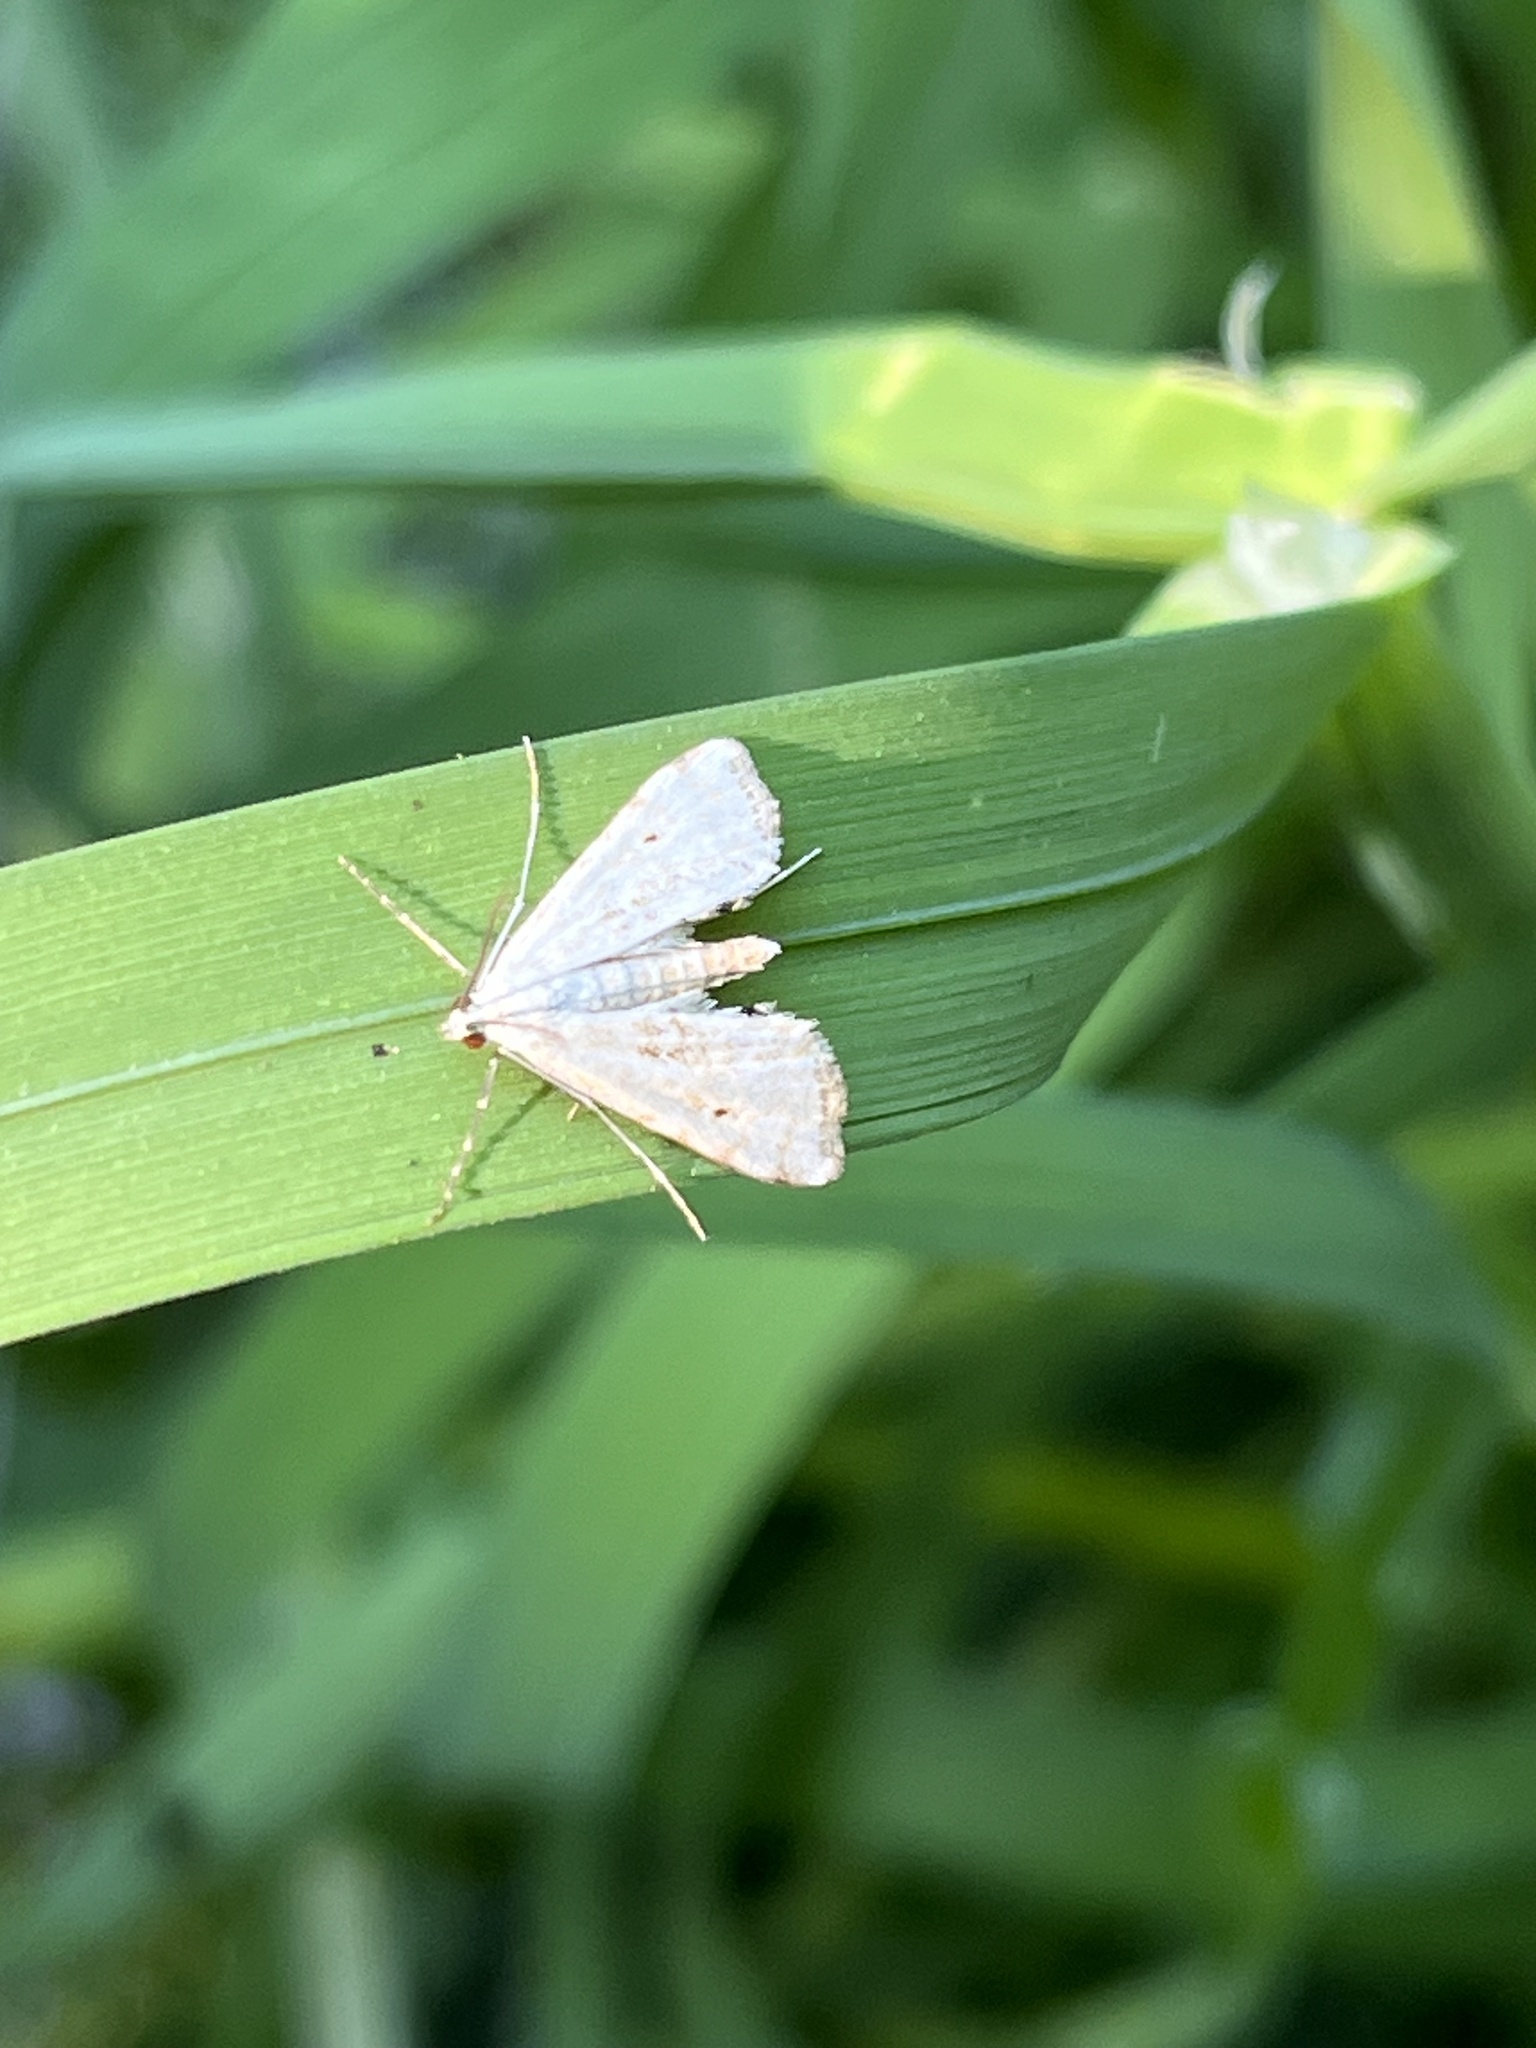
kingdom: Animalia
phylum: Arthropoda
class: Insecta
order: Lepidoptera
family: Crambidae
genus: Cataclysta
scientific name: Cataclysta lemnata
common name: Small china-mark
